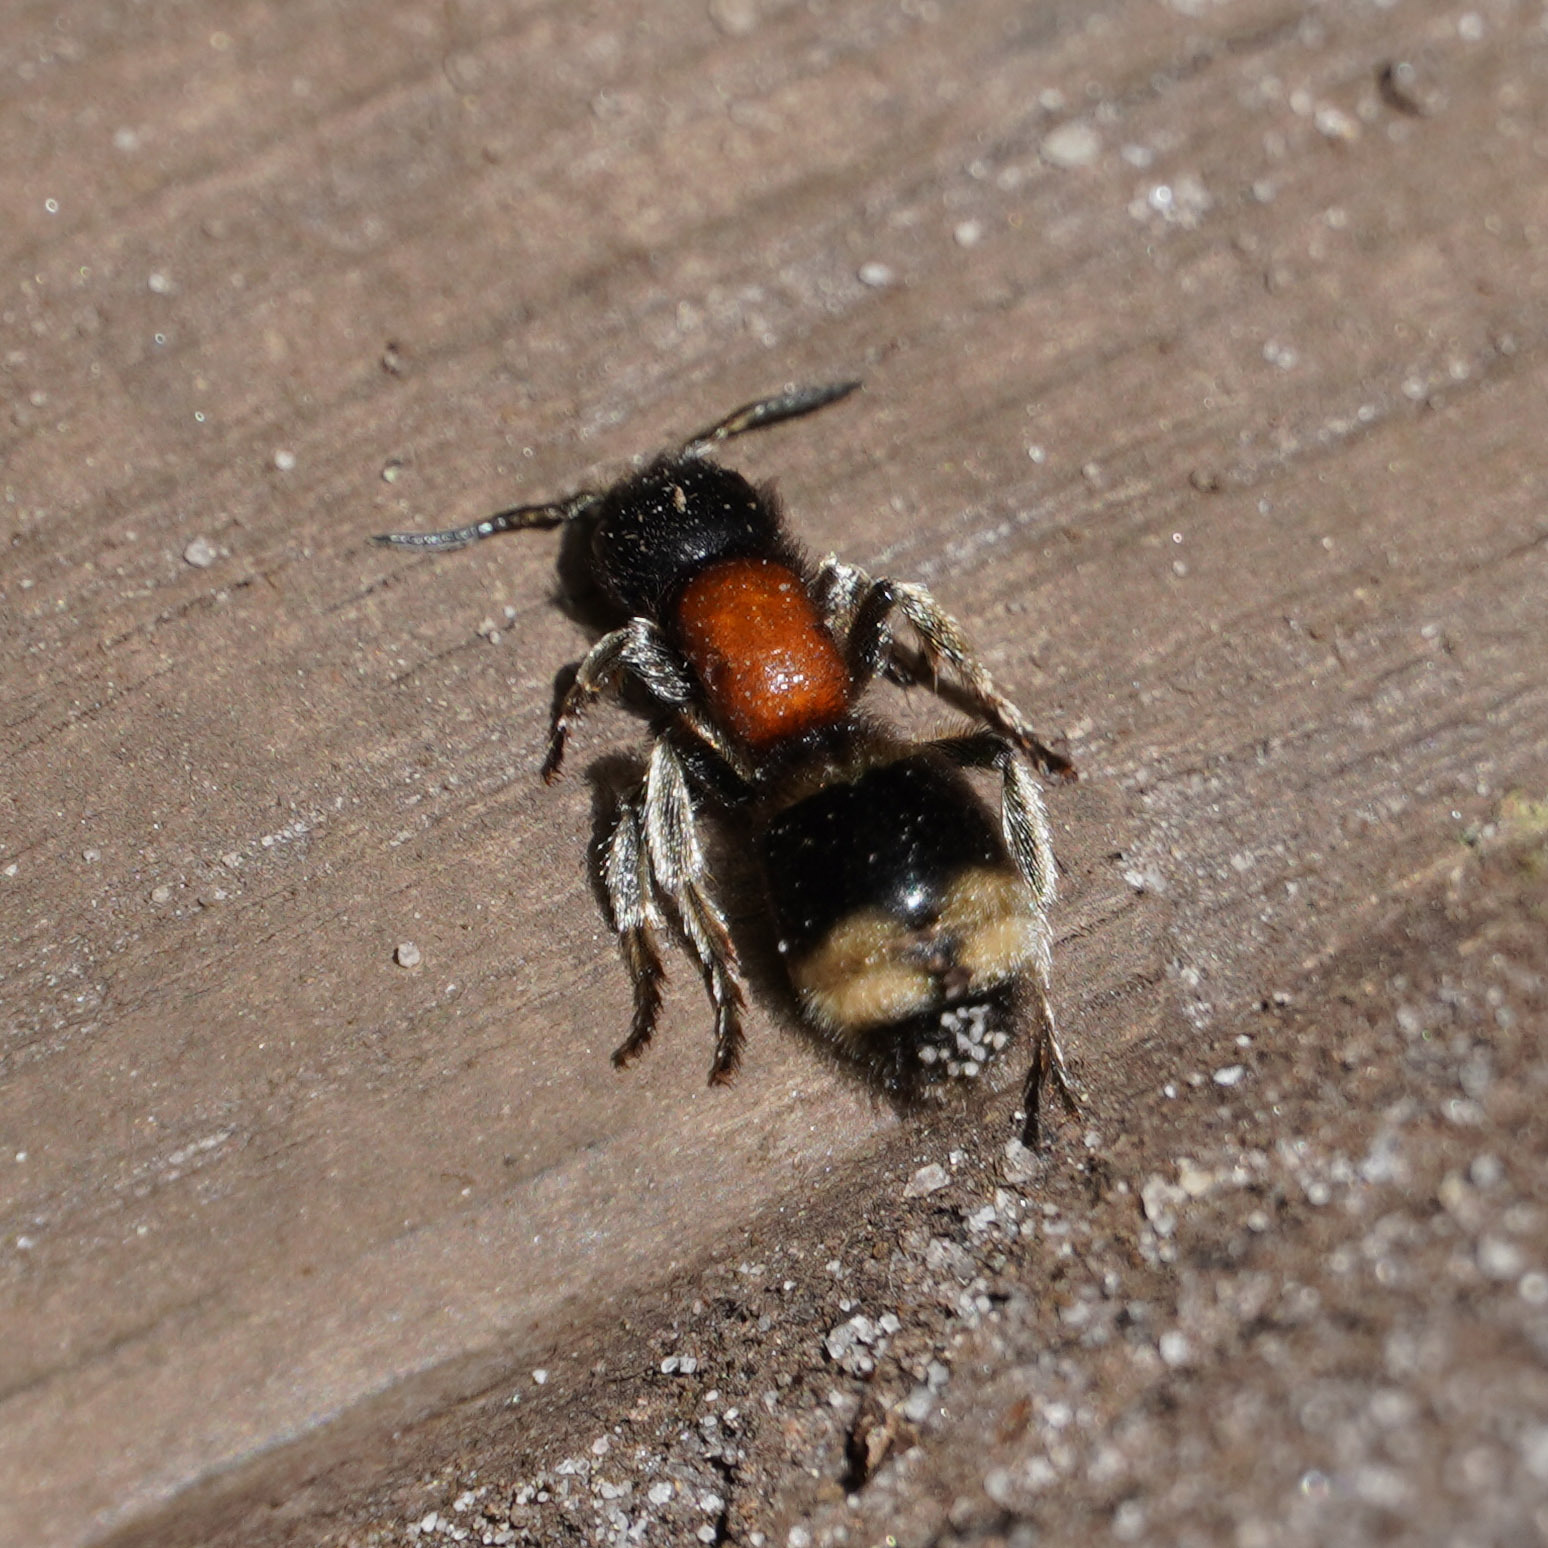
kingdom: Animalia
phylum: Arthropoda
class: Insecta
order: Hymenoptera
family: Mutillidae
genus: Mutilla
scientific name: Mutilla marginata
